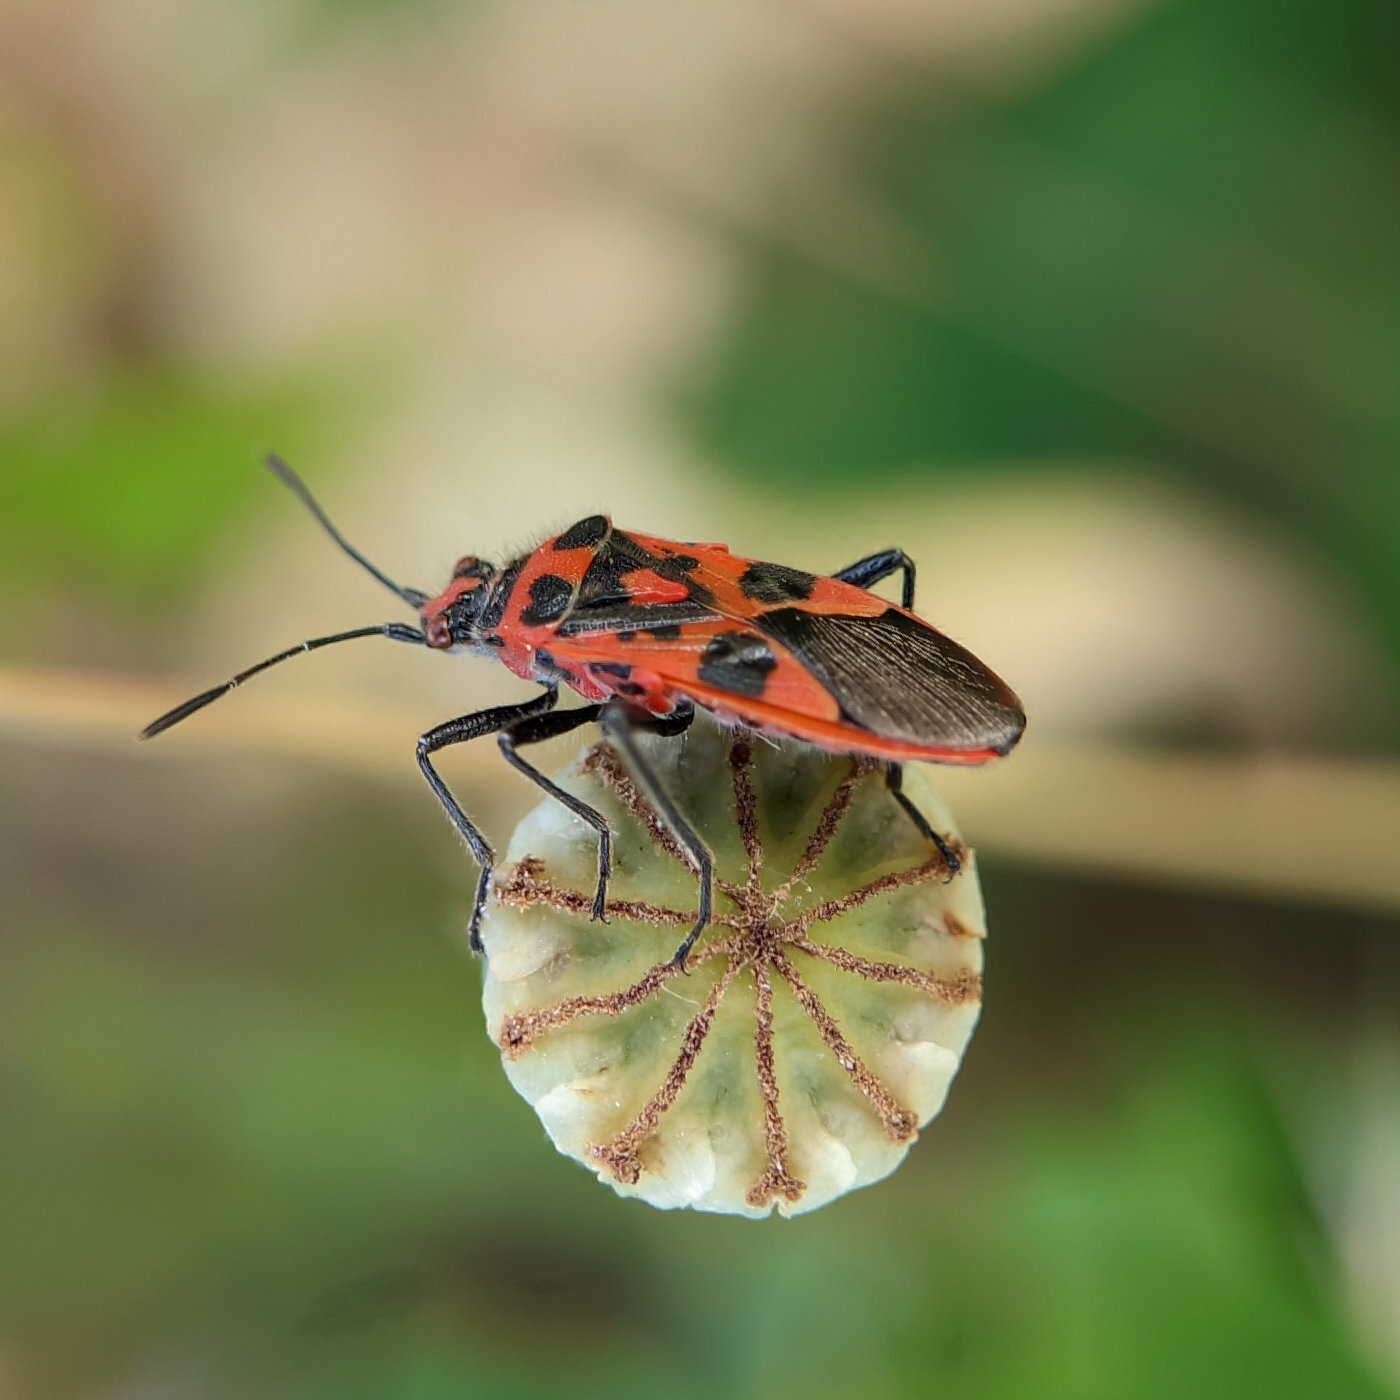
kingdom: Animalia
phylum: Arthropoda
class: Insecta
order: Hemiptera
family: Rhopalidae
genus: Corizus
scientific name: Corizus hyoscyami
